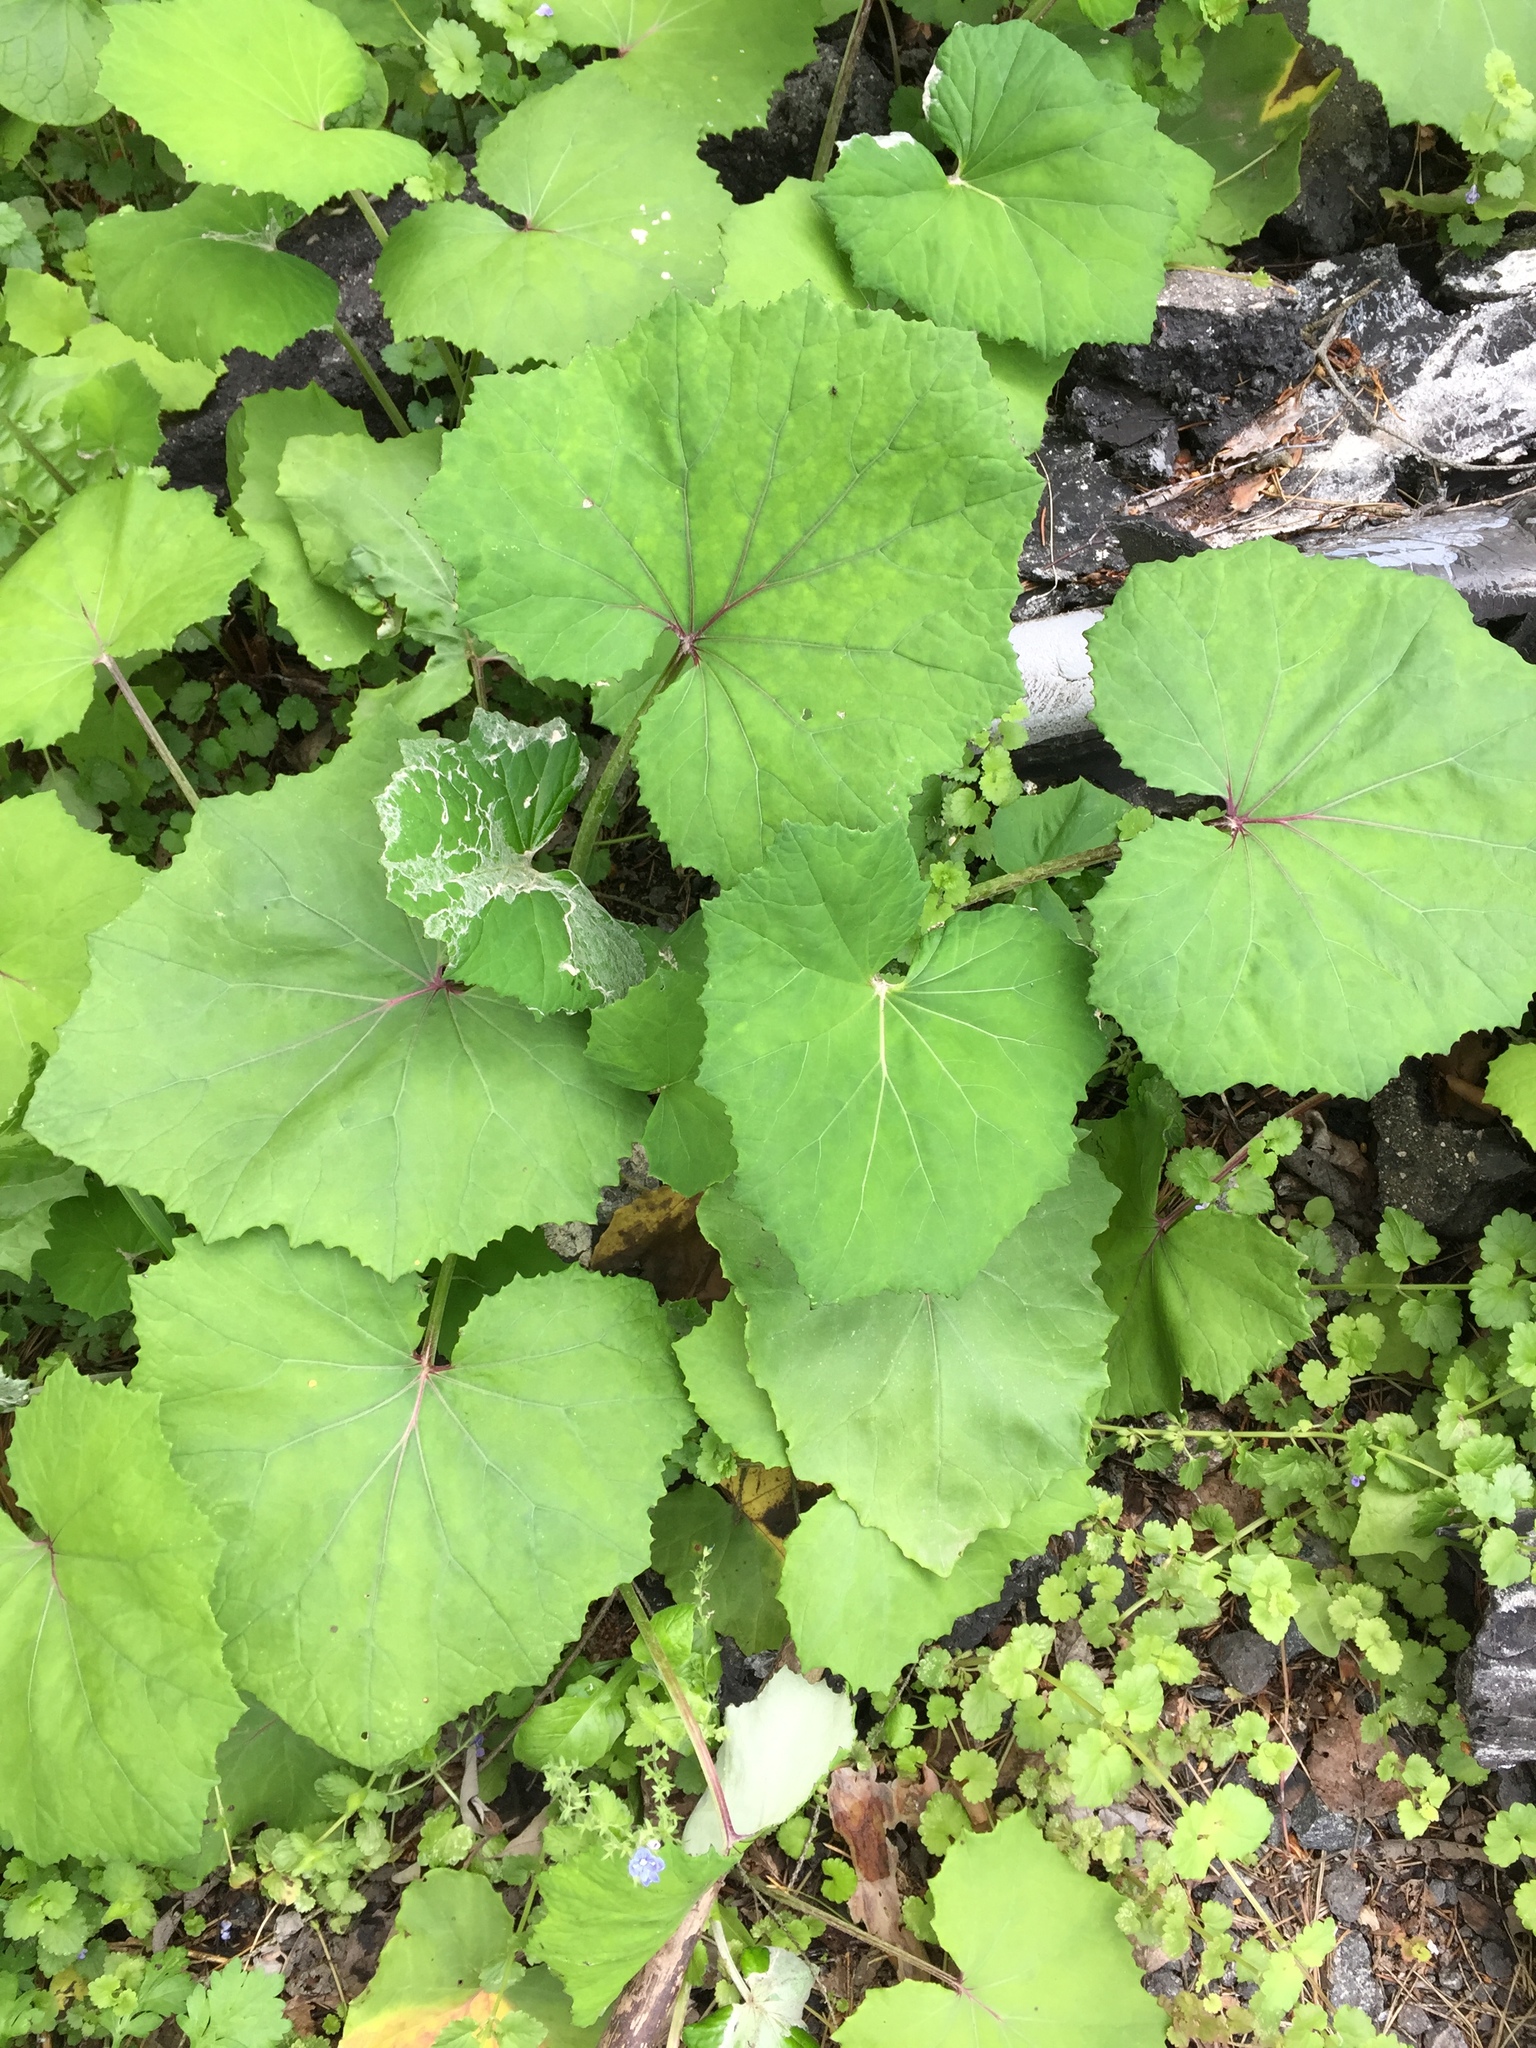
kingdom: Plantae
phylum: Tracheophyta
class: Magnoliopsida
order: Asterales
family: Asteraceae
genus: Tussilago
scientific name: Tussilago farfara
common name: Coltsfoot
